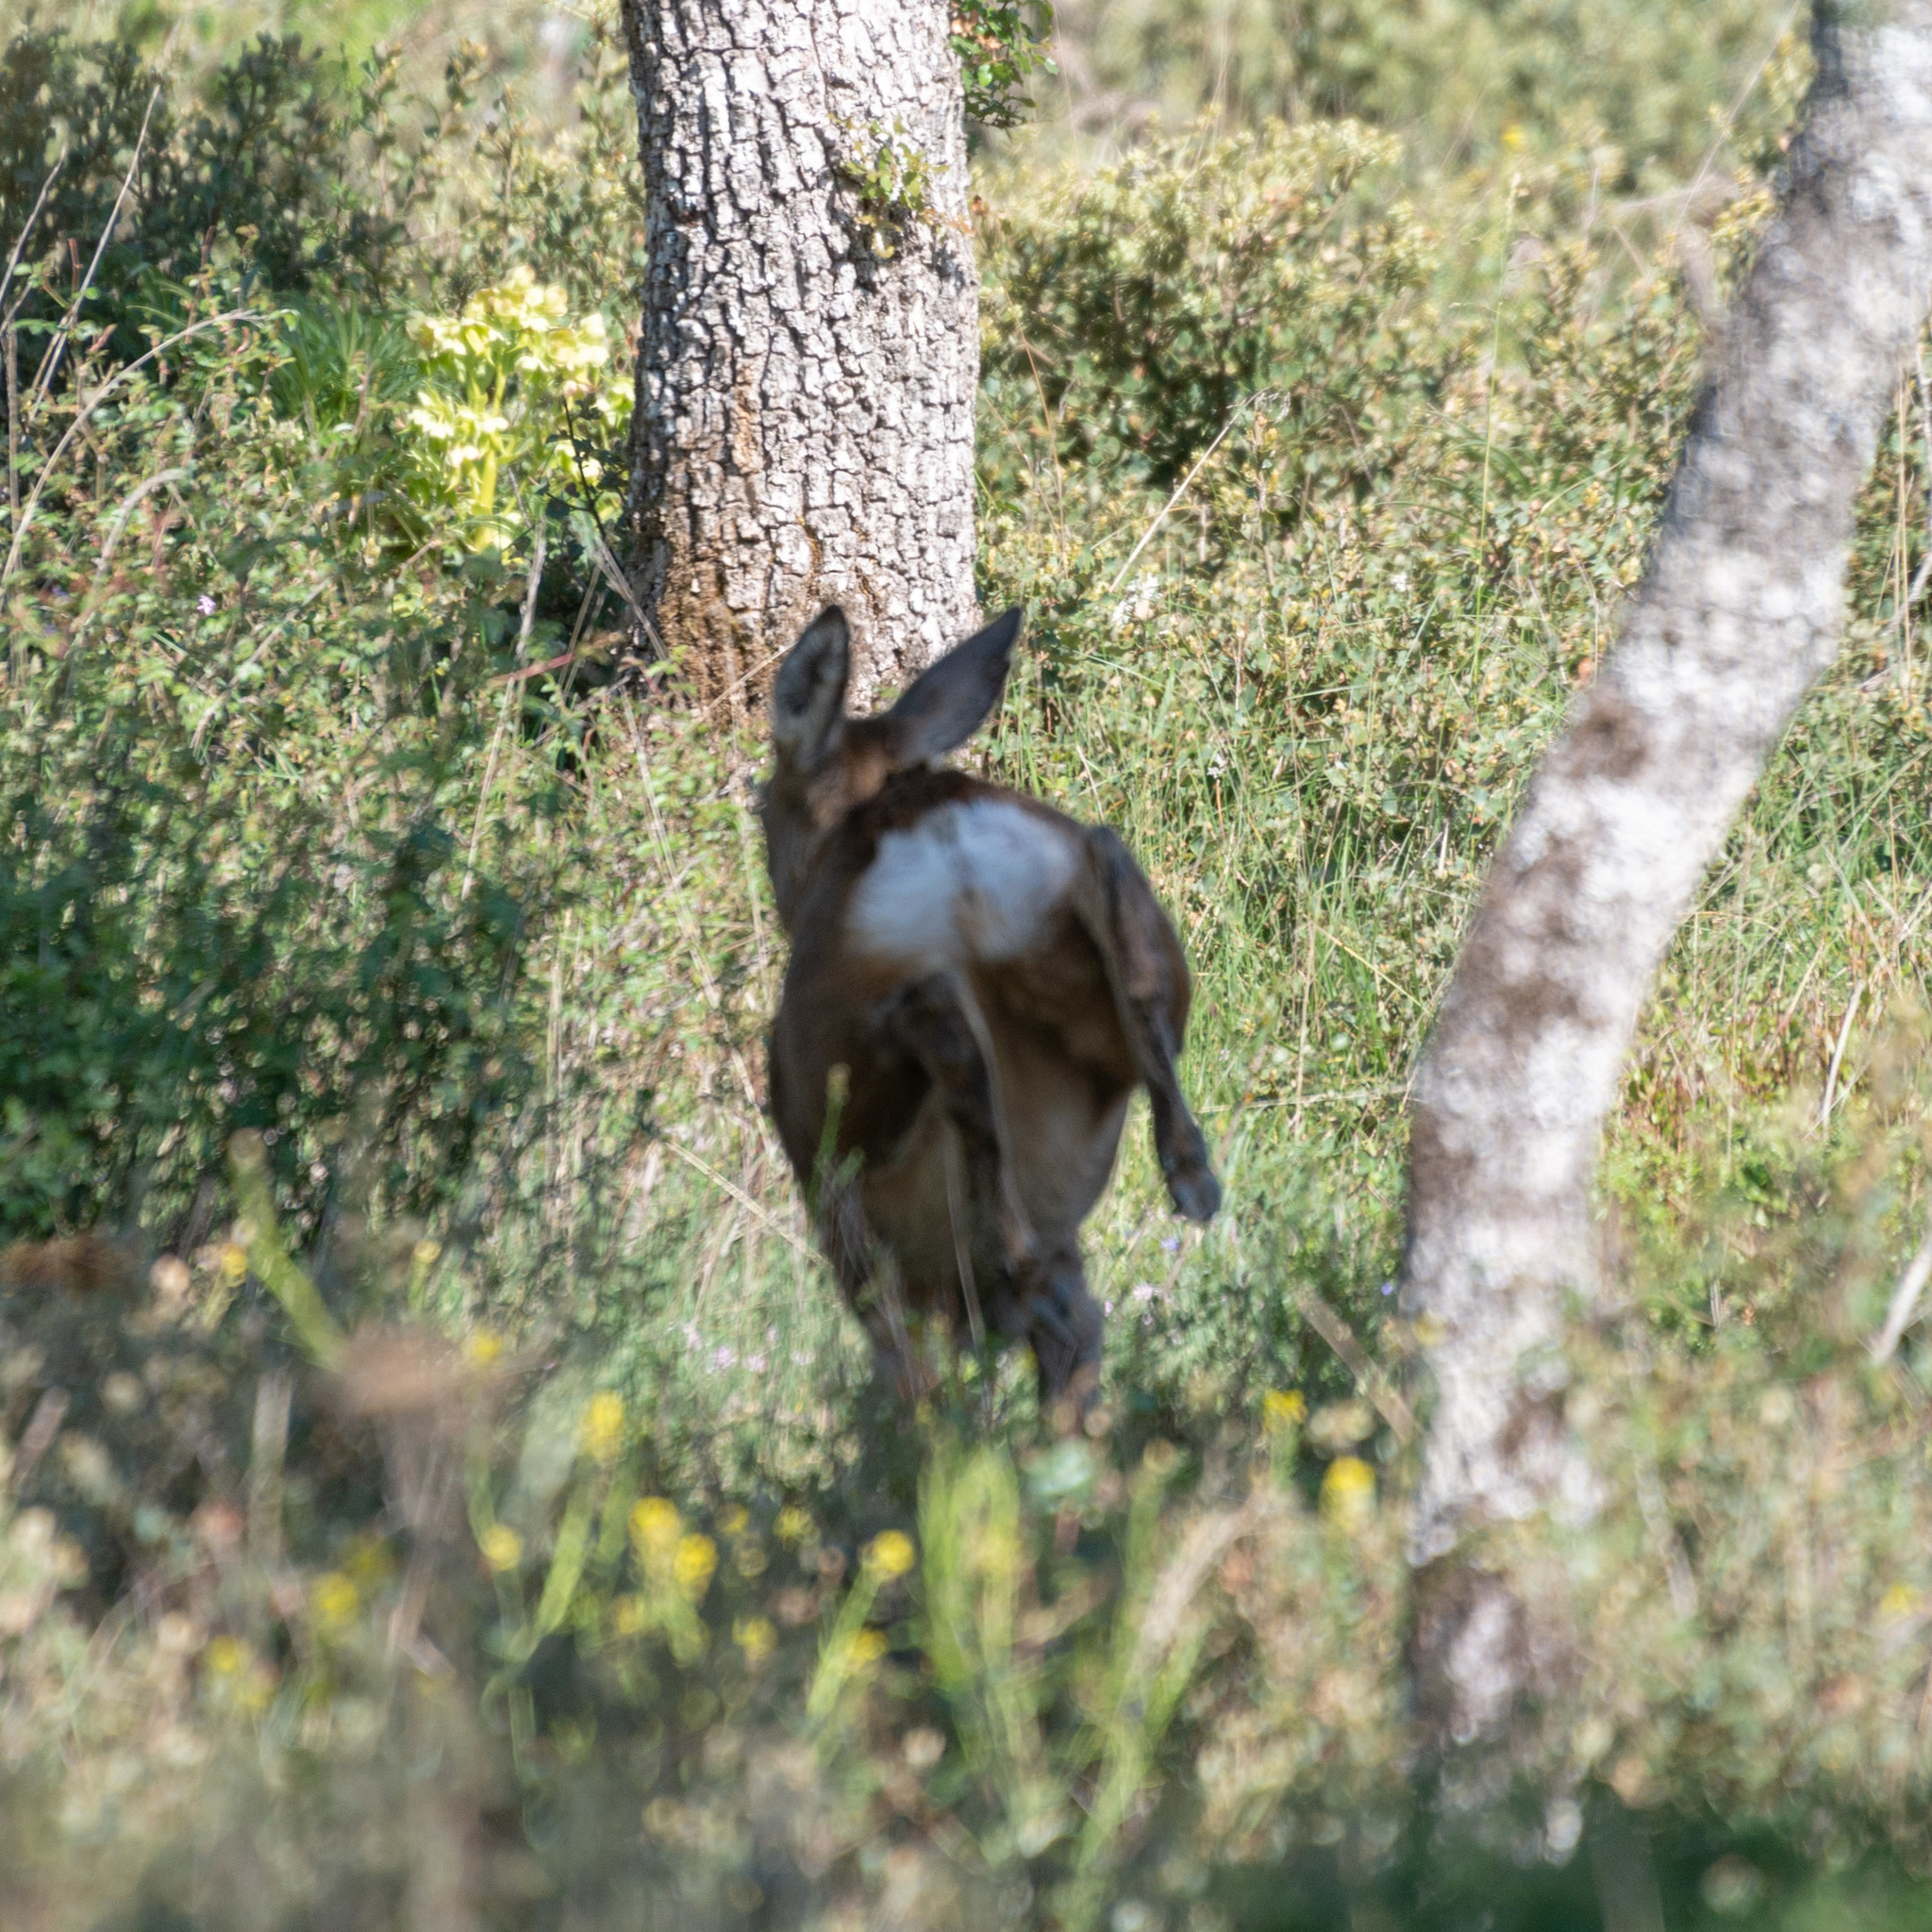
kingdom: Animalia
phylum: Chordata
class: Mammalia
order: Artiodactyla
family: Cervidae
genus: Capreolus
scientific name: Capreolus capreolus
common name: Western roe deer
